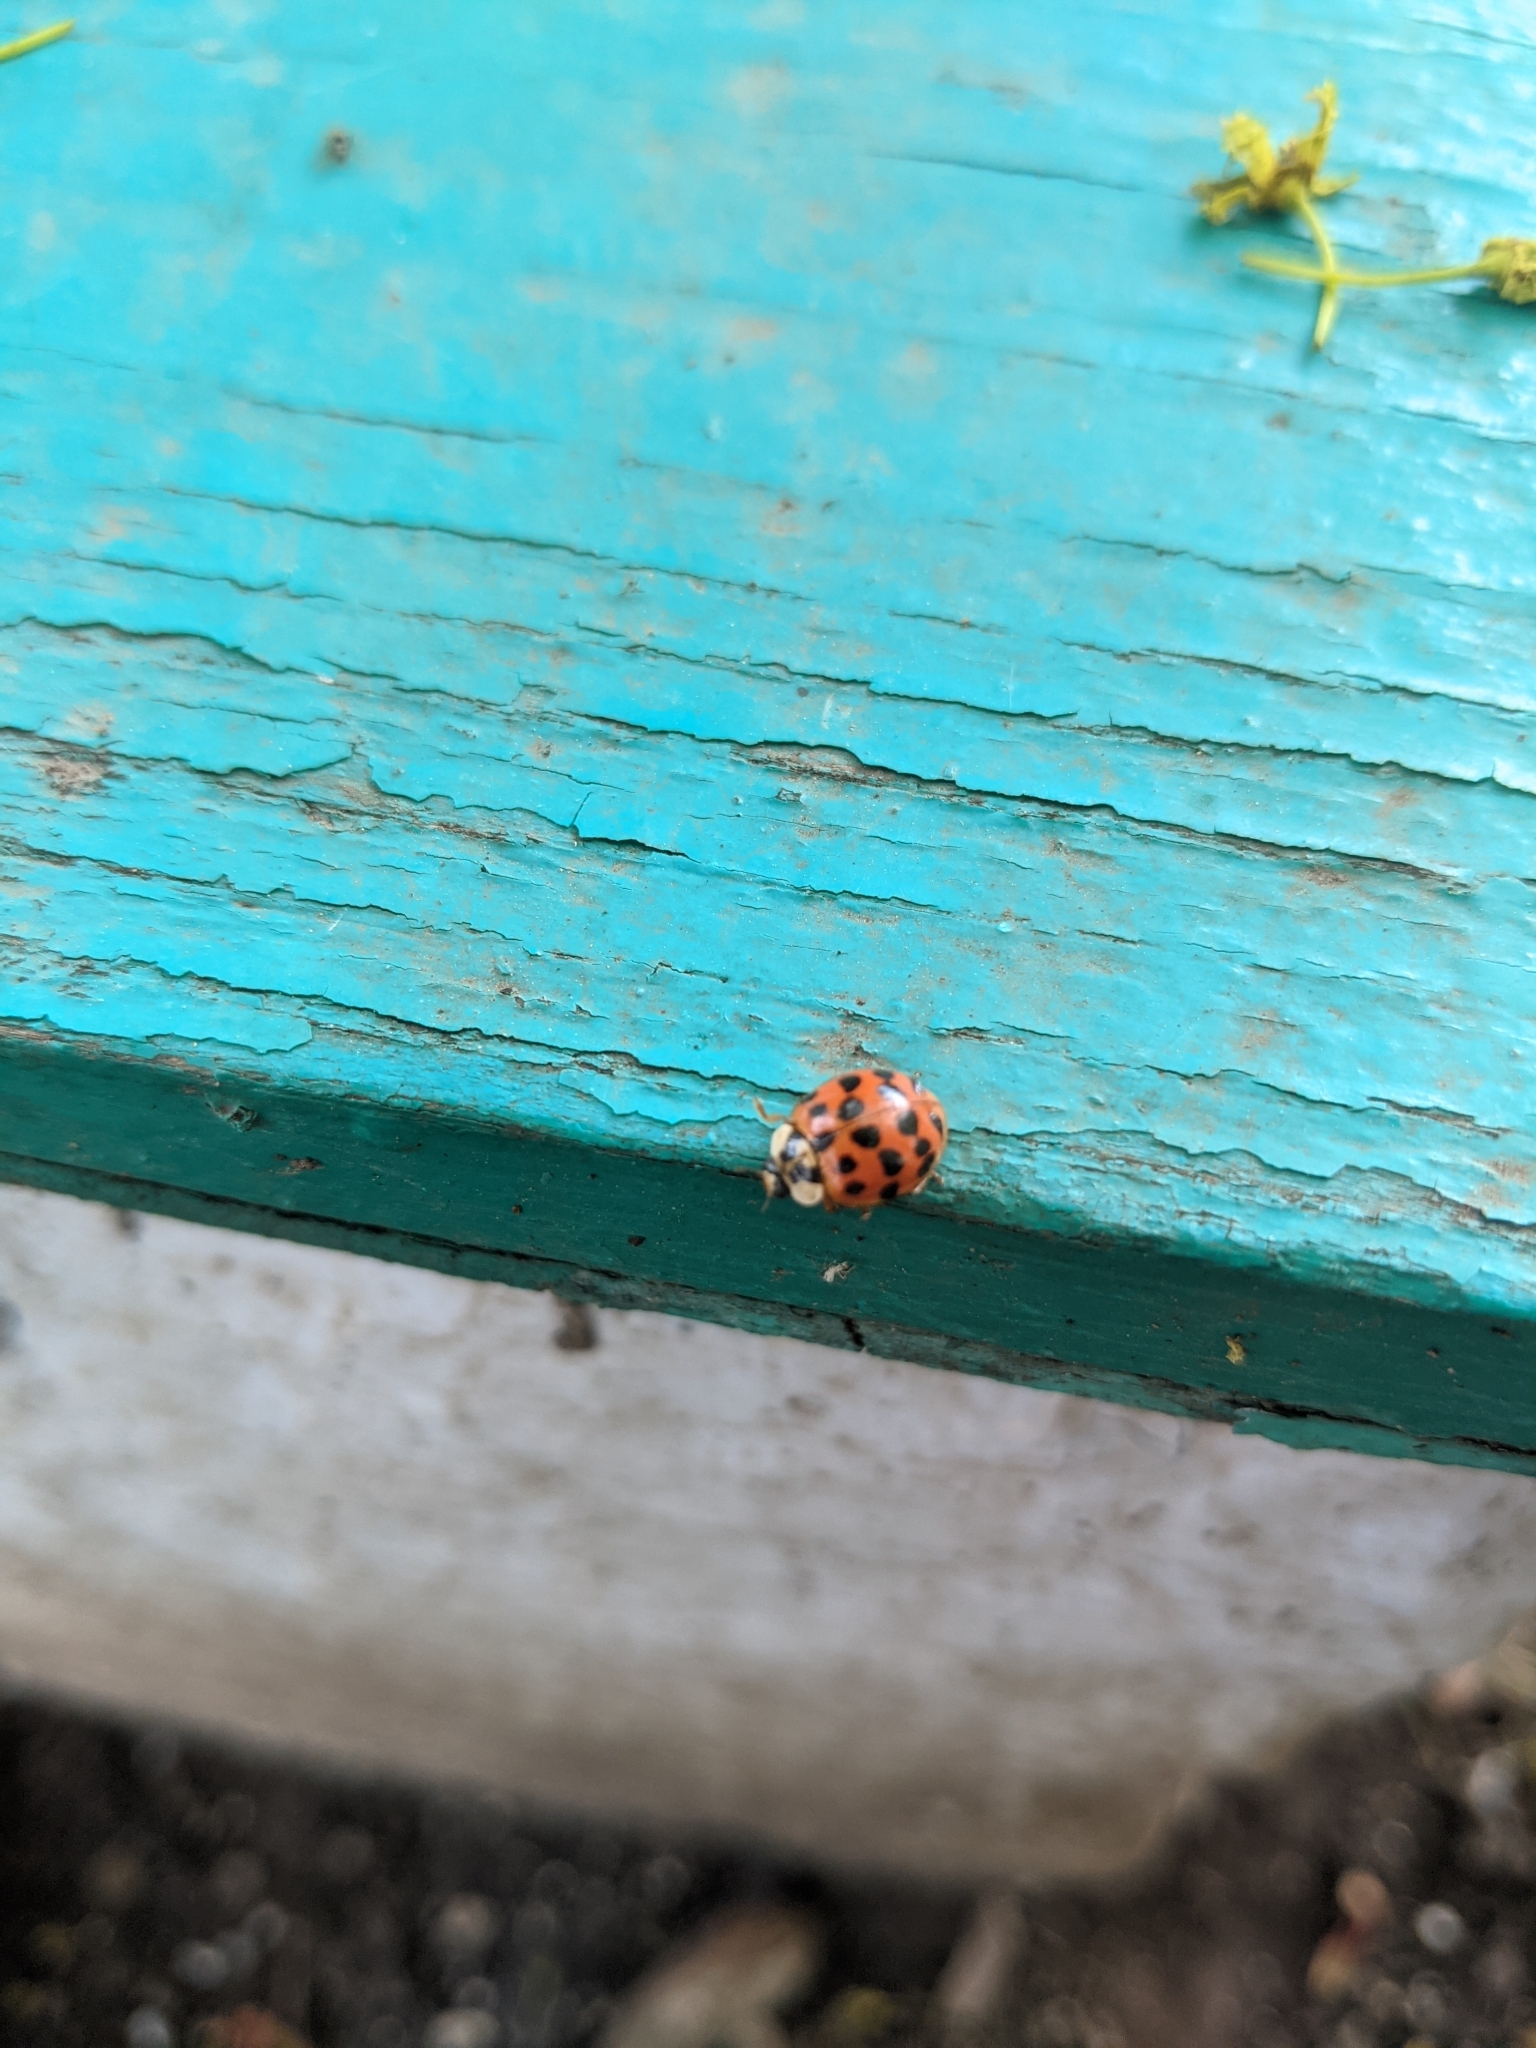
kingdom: Animalia
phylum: Arthropoda
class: Insecta
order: Coleoptera
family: Coccinellidae
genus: Harmonia
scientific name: Harmonia axyridis
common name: Harlequin ladybird
